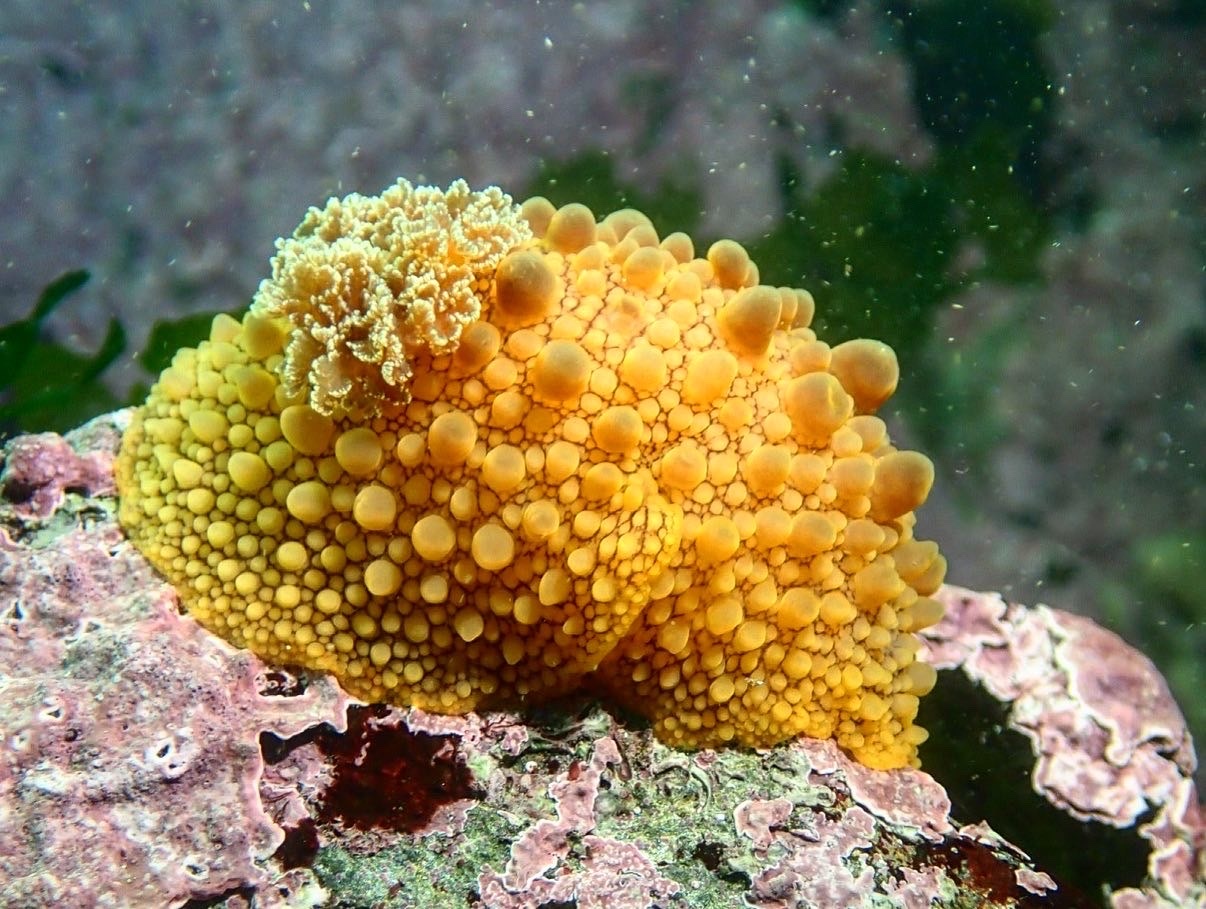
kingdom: Animalia
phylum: Mollusca
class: Gastropoda
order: Nudibranchia
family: Dorididae
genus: Doris
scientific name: Doris fontainii
